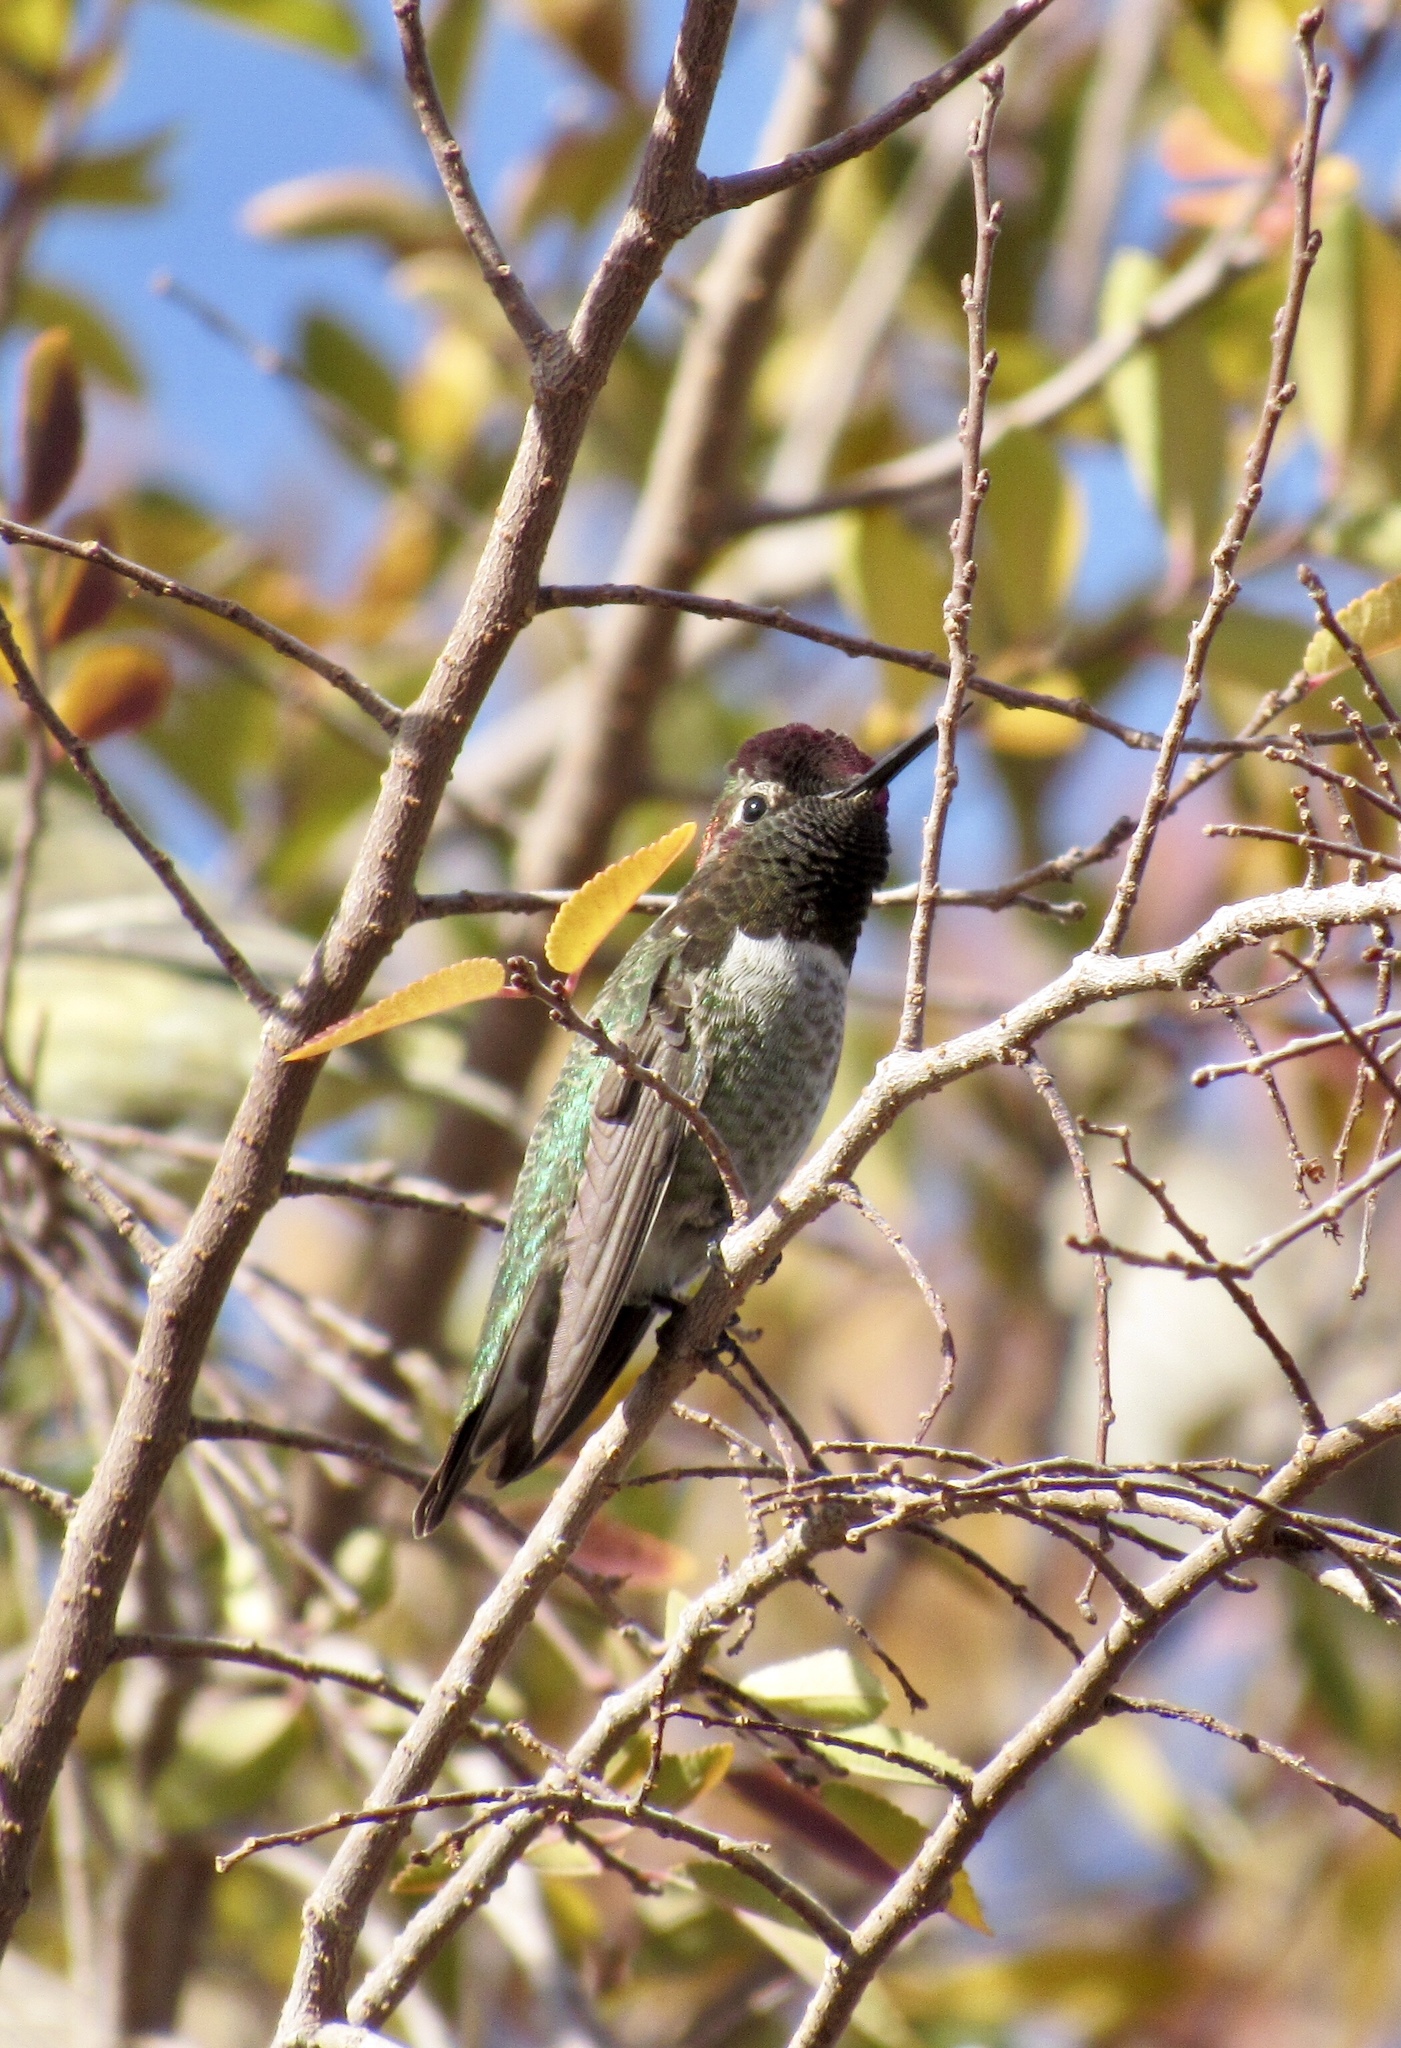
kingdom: Animalia
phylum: Chordata
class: Aves
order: Apodiformes
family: Trochilidae
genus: Calypte
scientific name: Calypte anna
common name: Anna's hummingbird
